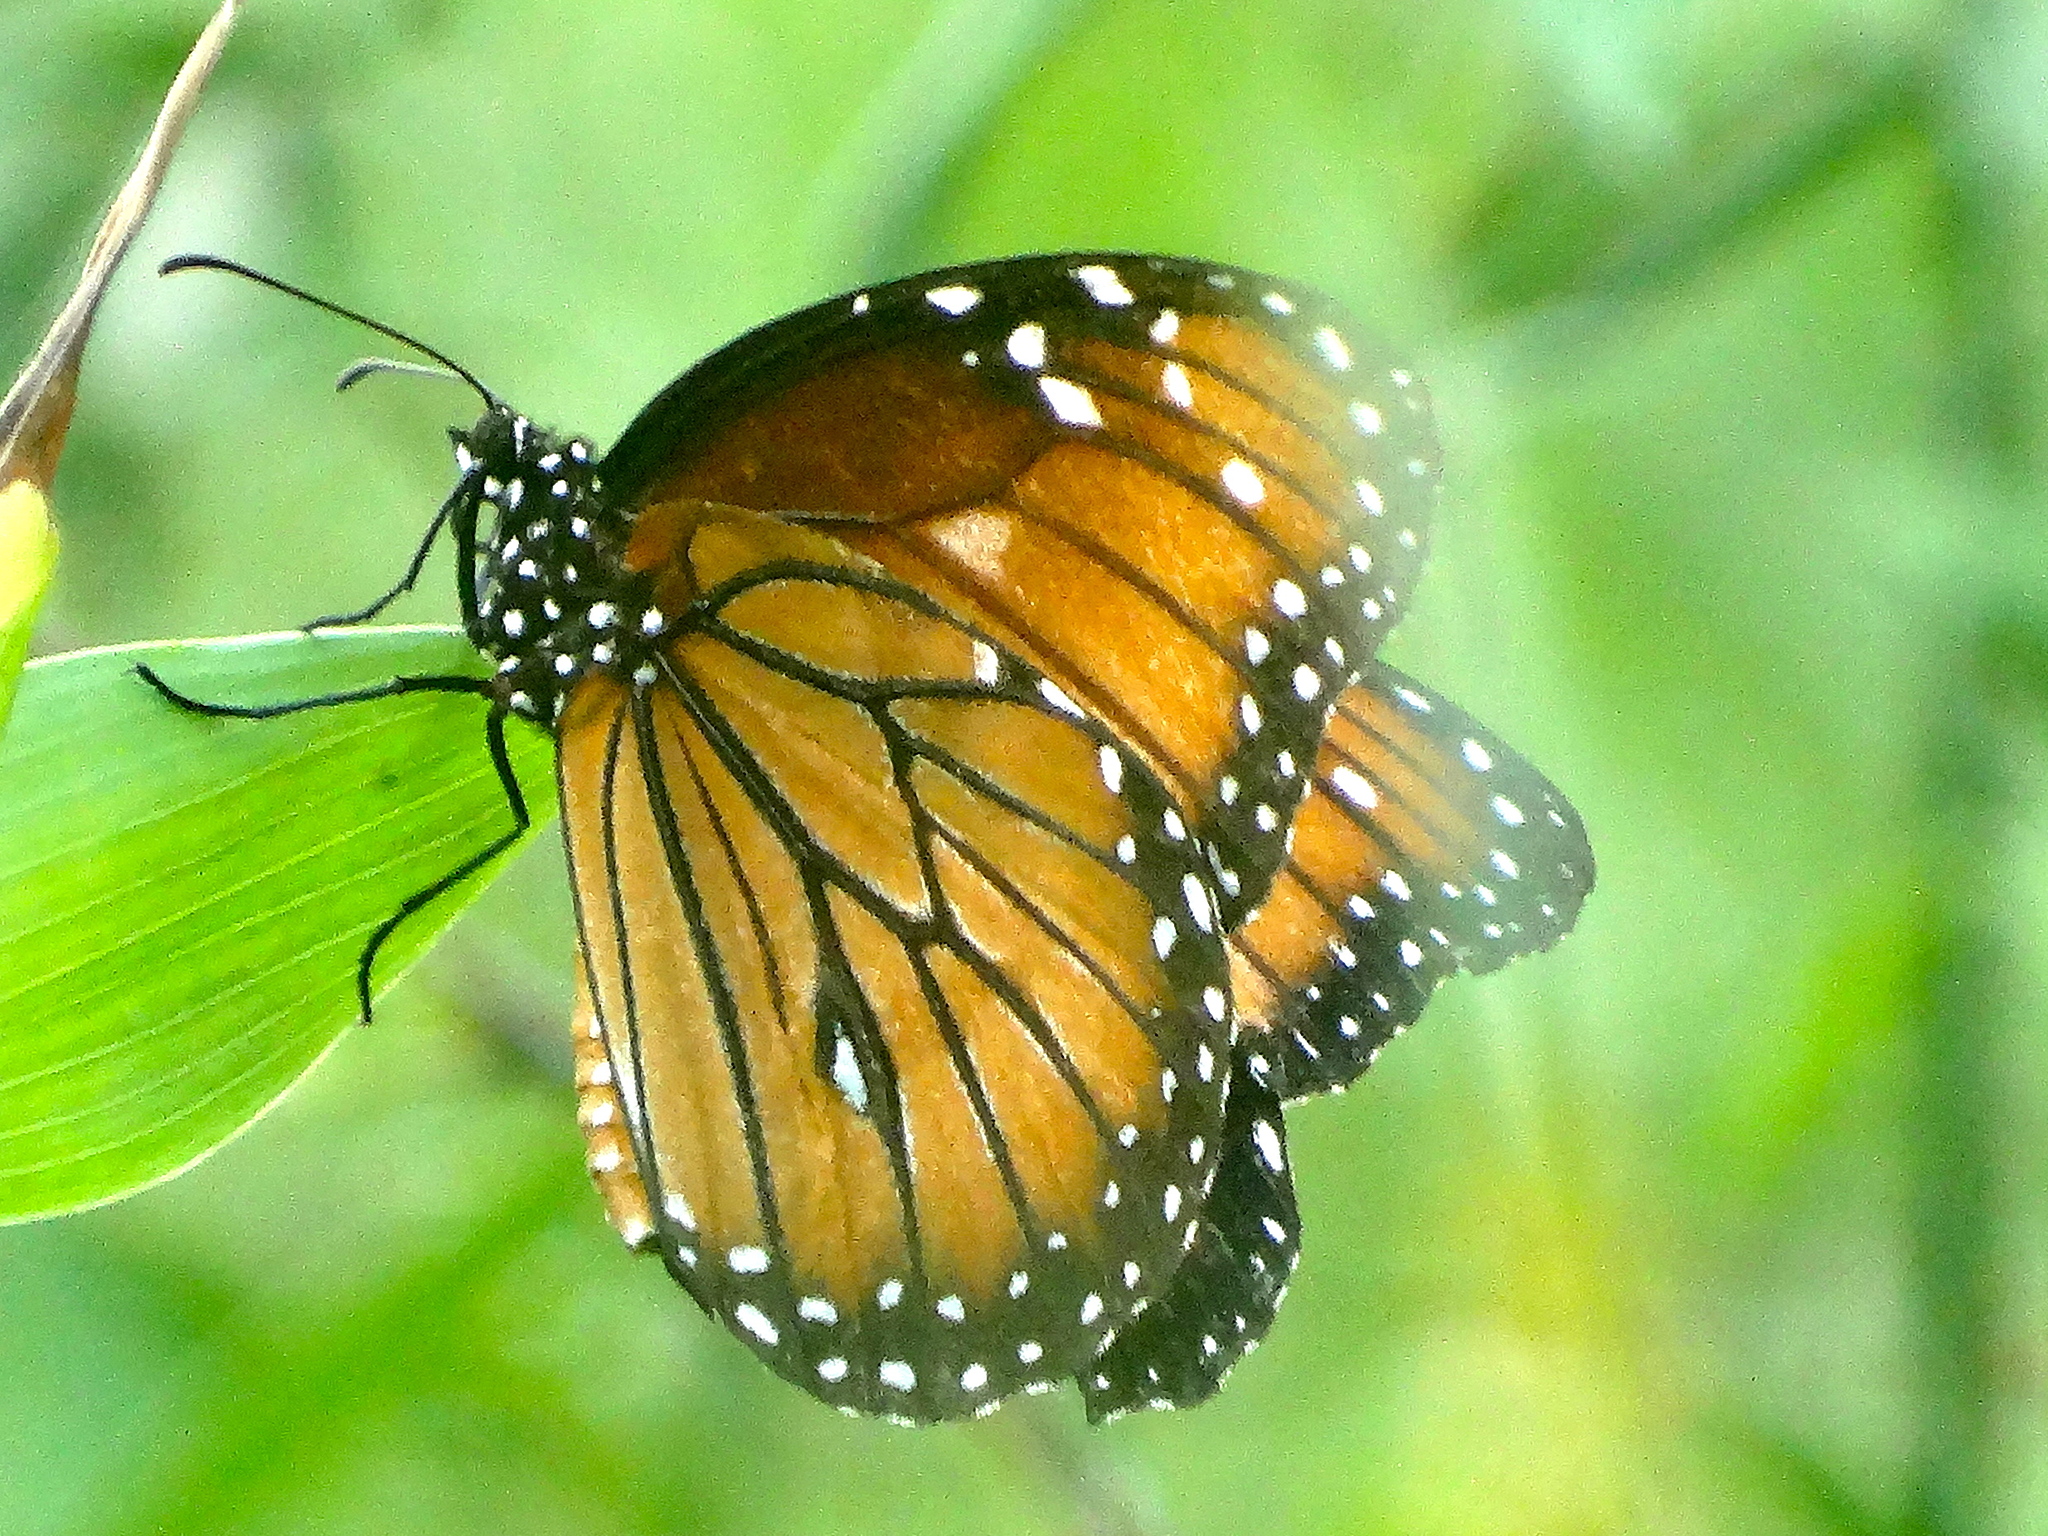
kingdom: Animalia
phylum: Arthropoda
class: Insecta
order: Lepidoptera
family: Nymphalidae
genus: Danaus
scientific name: Danaus eresimus
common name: Soldier
